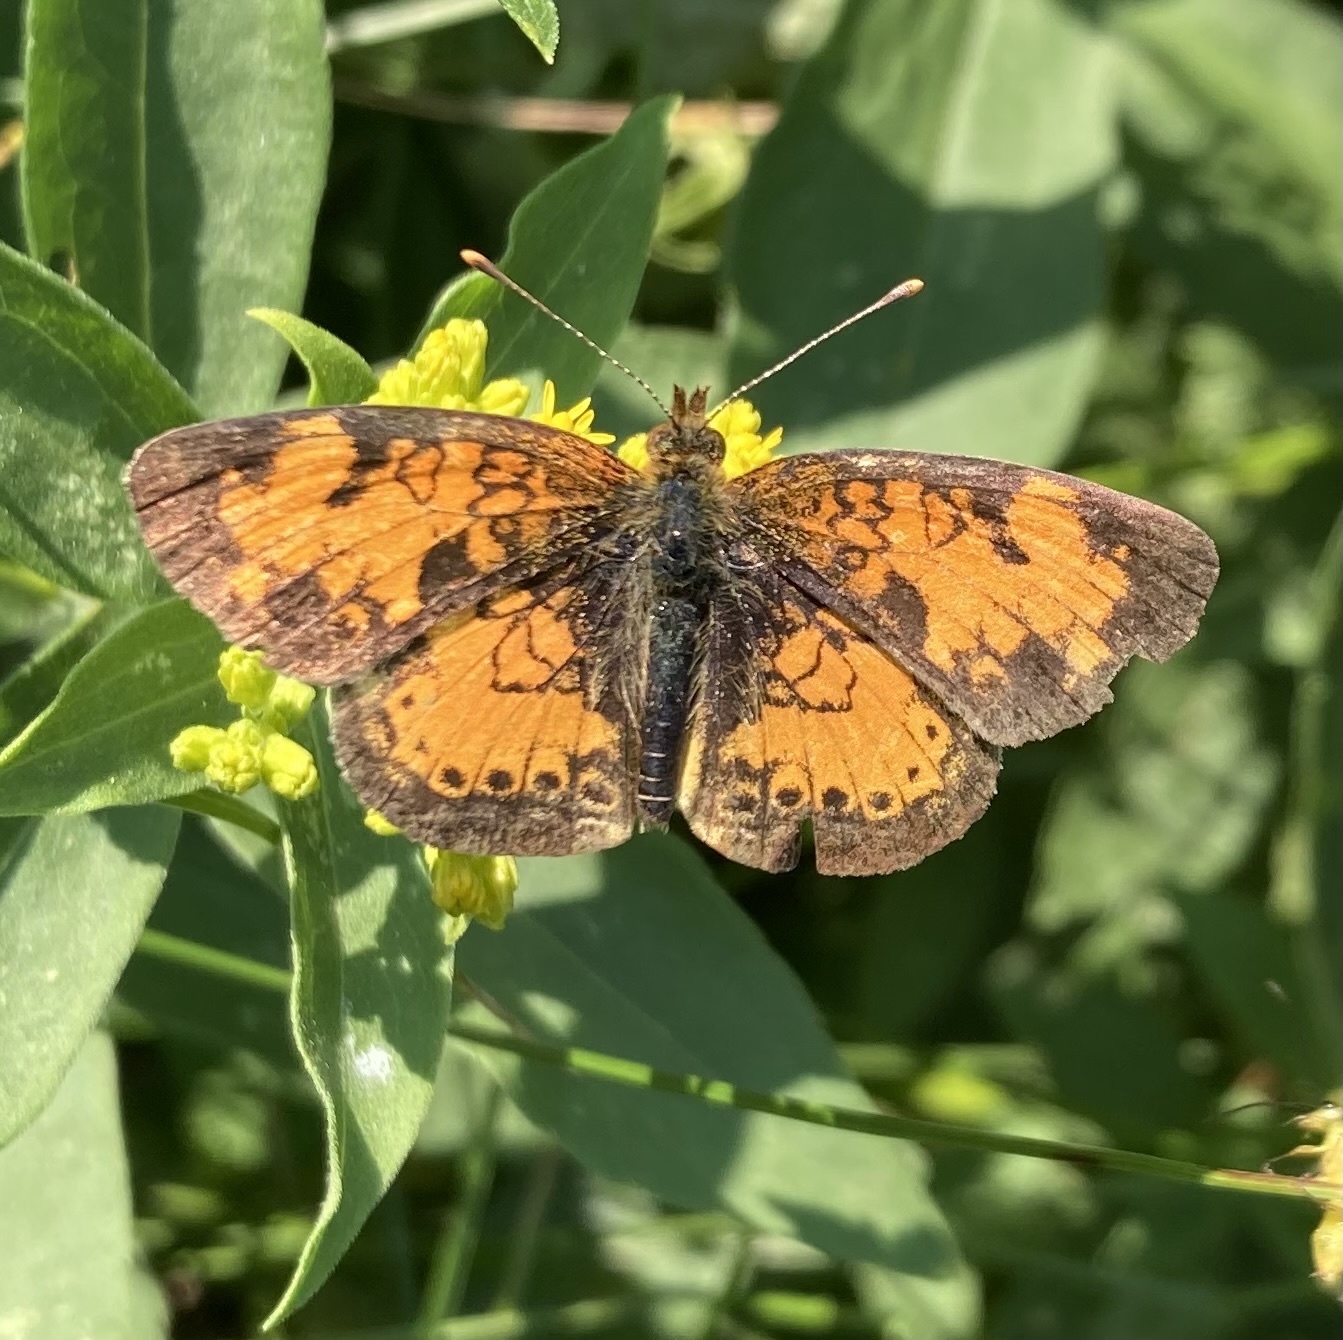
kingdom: Animalia
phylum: Arthropoda
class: Insecta
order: Lepidoptera
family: Nymphalidae
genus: Phyciodes
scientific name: Phyciodes tharos
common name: Pearl crescent
